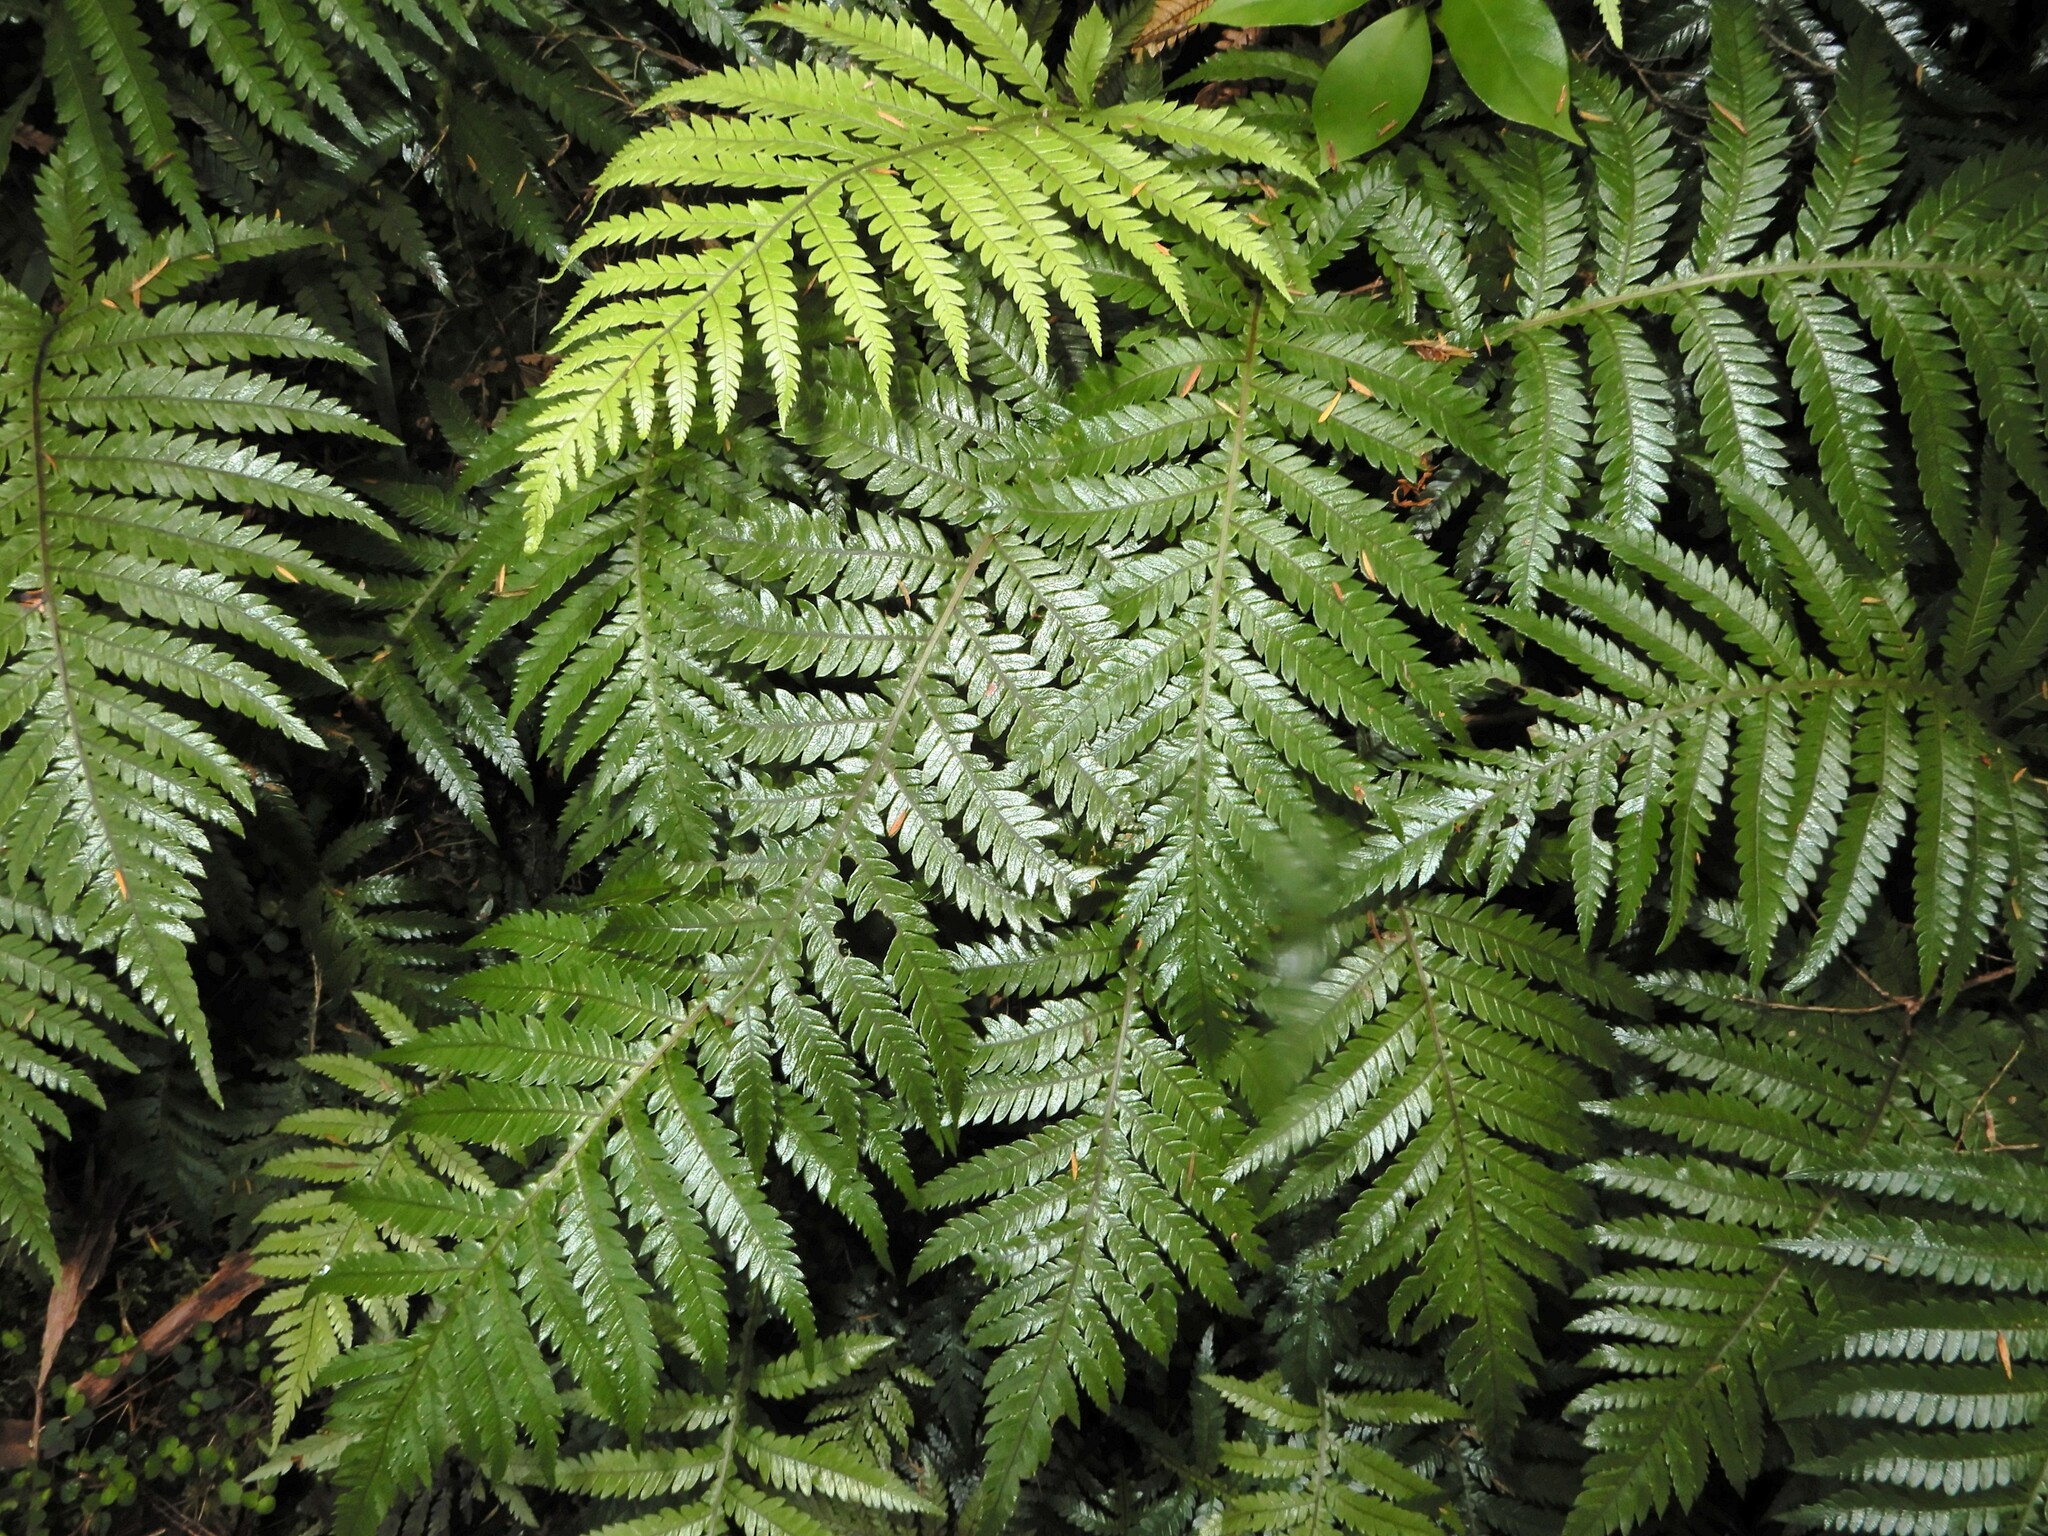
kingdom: Plantae
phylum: Tracheophyta
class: Polypodiopsida
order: Polypodiales
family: Blechnaceae
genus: Diploblechnum
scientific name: Diploblechnum fraseri
